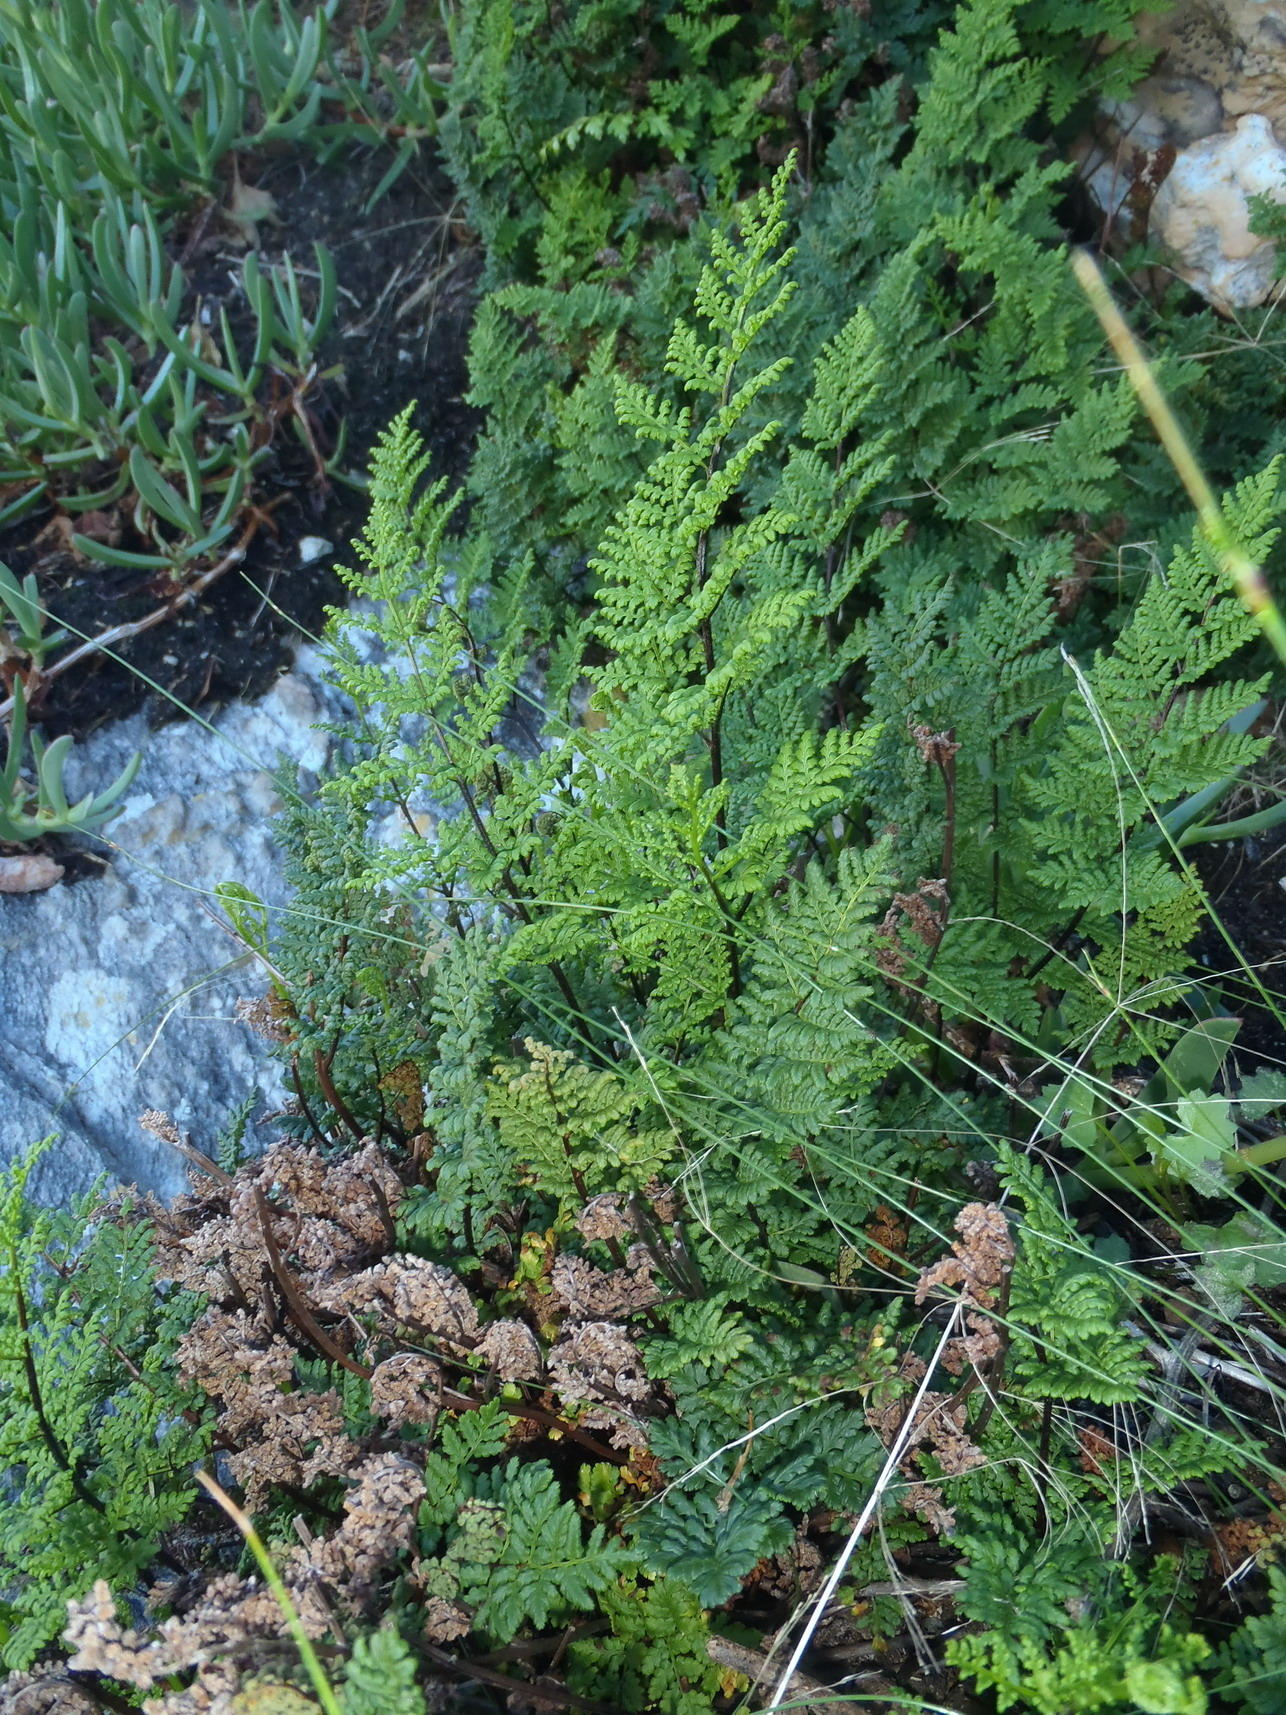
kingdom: Plantae
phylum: Tracheophyta
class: Polypodiopsida
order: Polypodiales
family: Pteridaceae
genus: Cheilanthes
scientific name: Cheilanthes multifida
